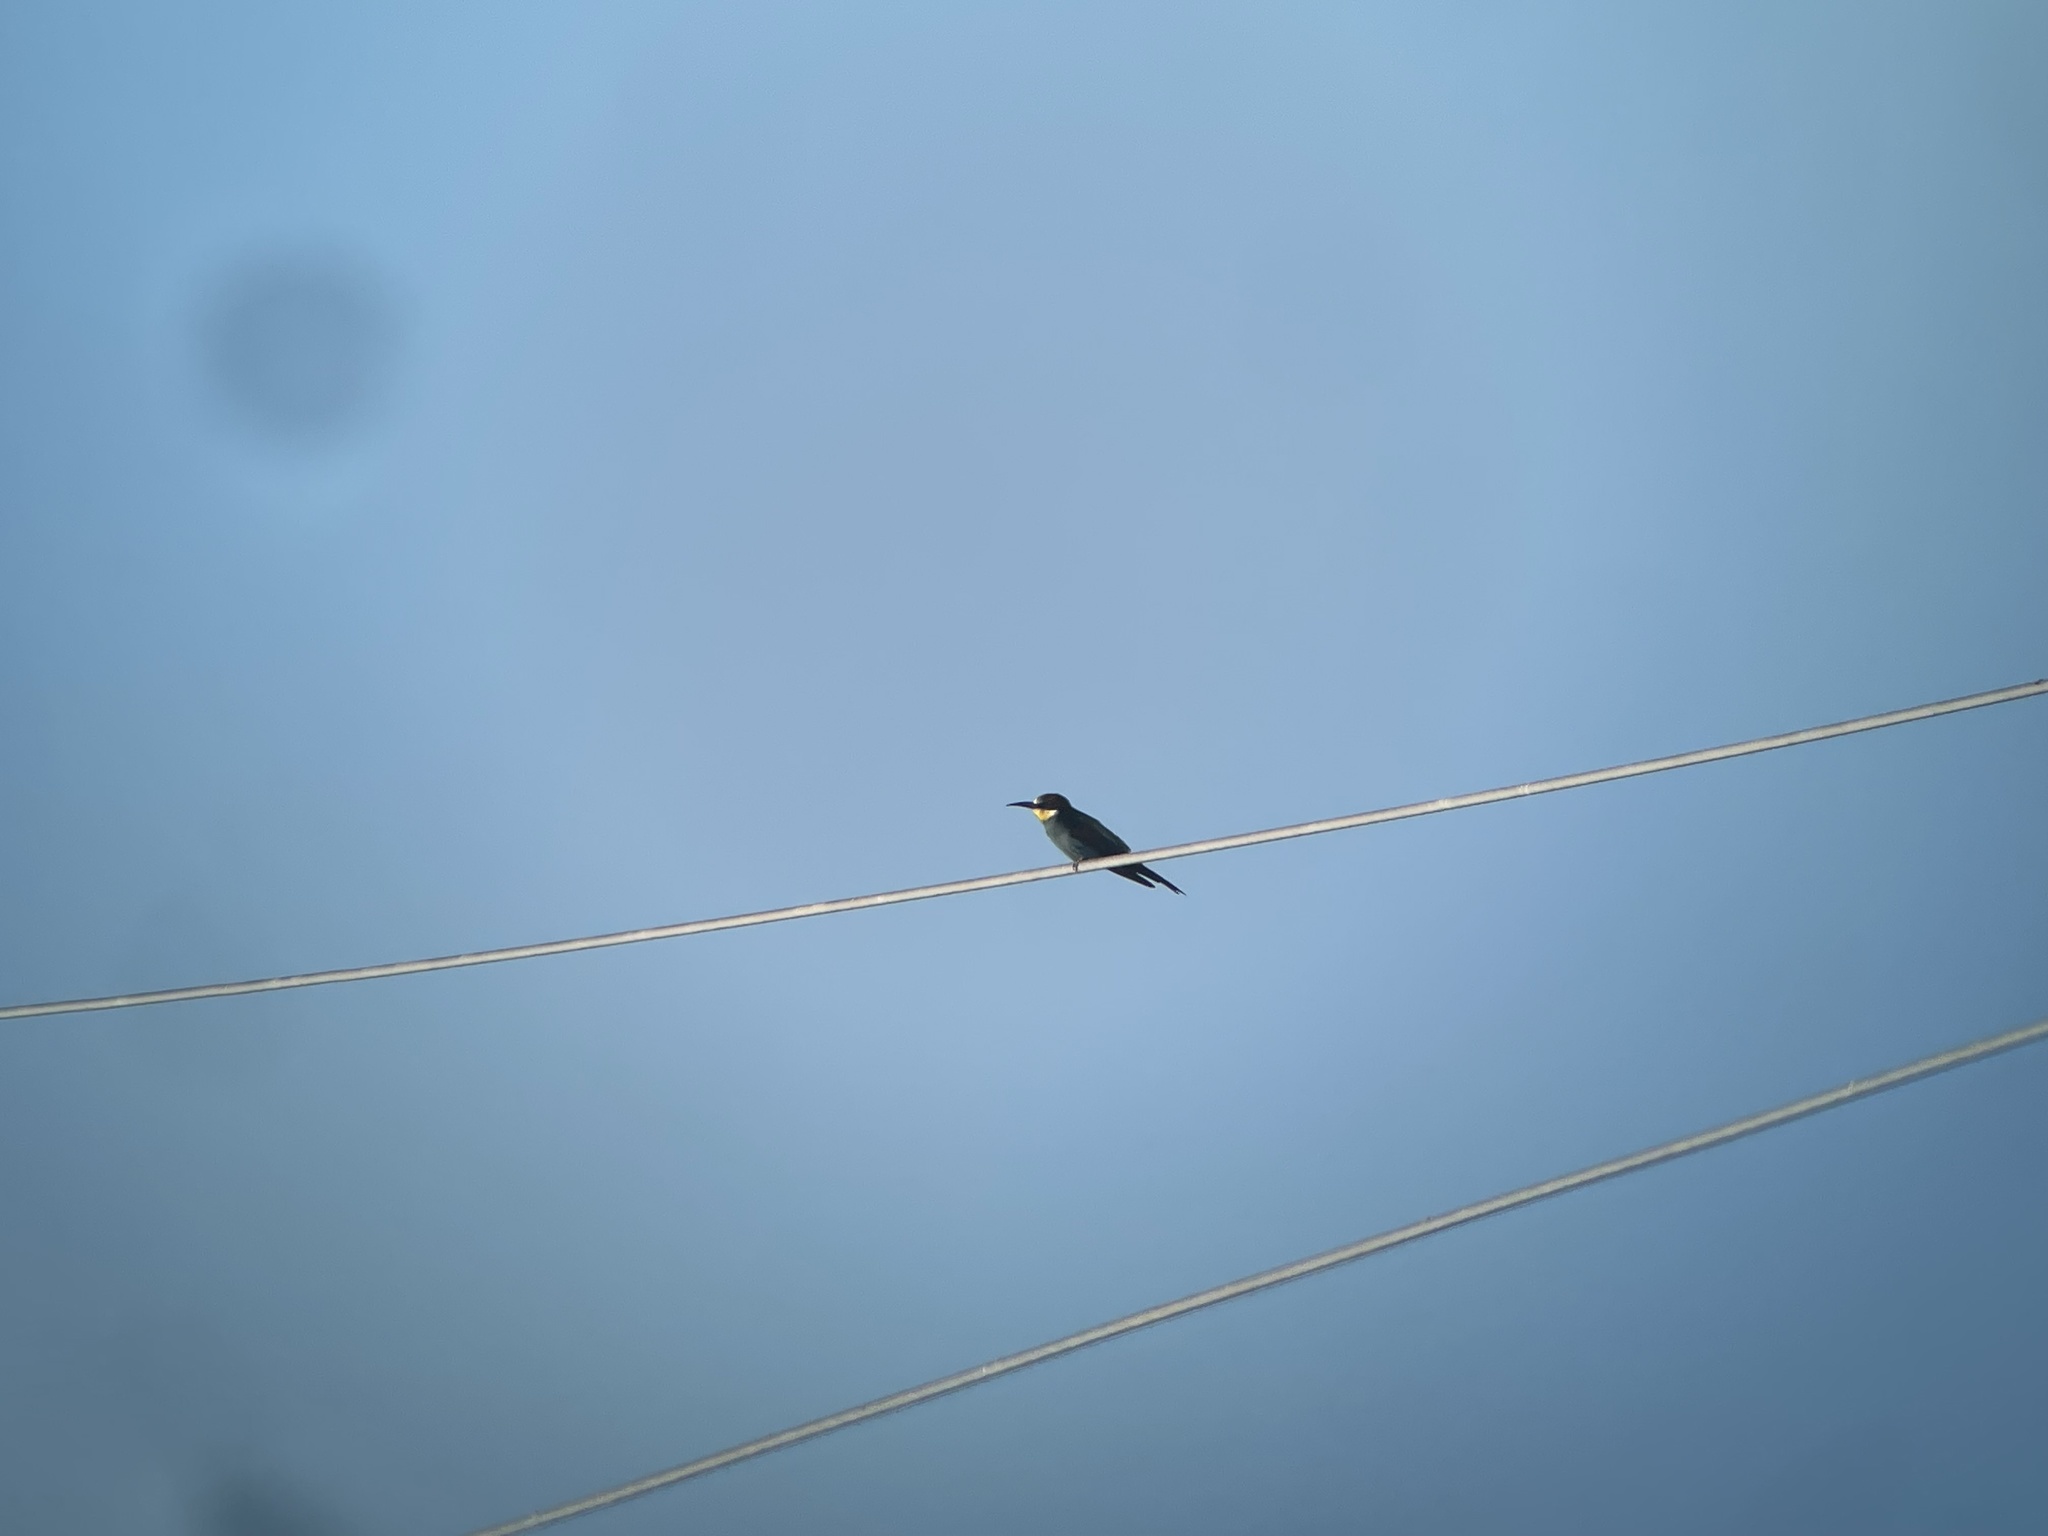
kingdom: Animalia
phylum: Chordata
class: Aves
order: Coraciiformes
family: Meropidae
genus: Merops
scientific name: Merops apiaster
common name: European bee-eater
